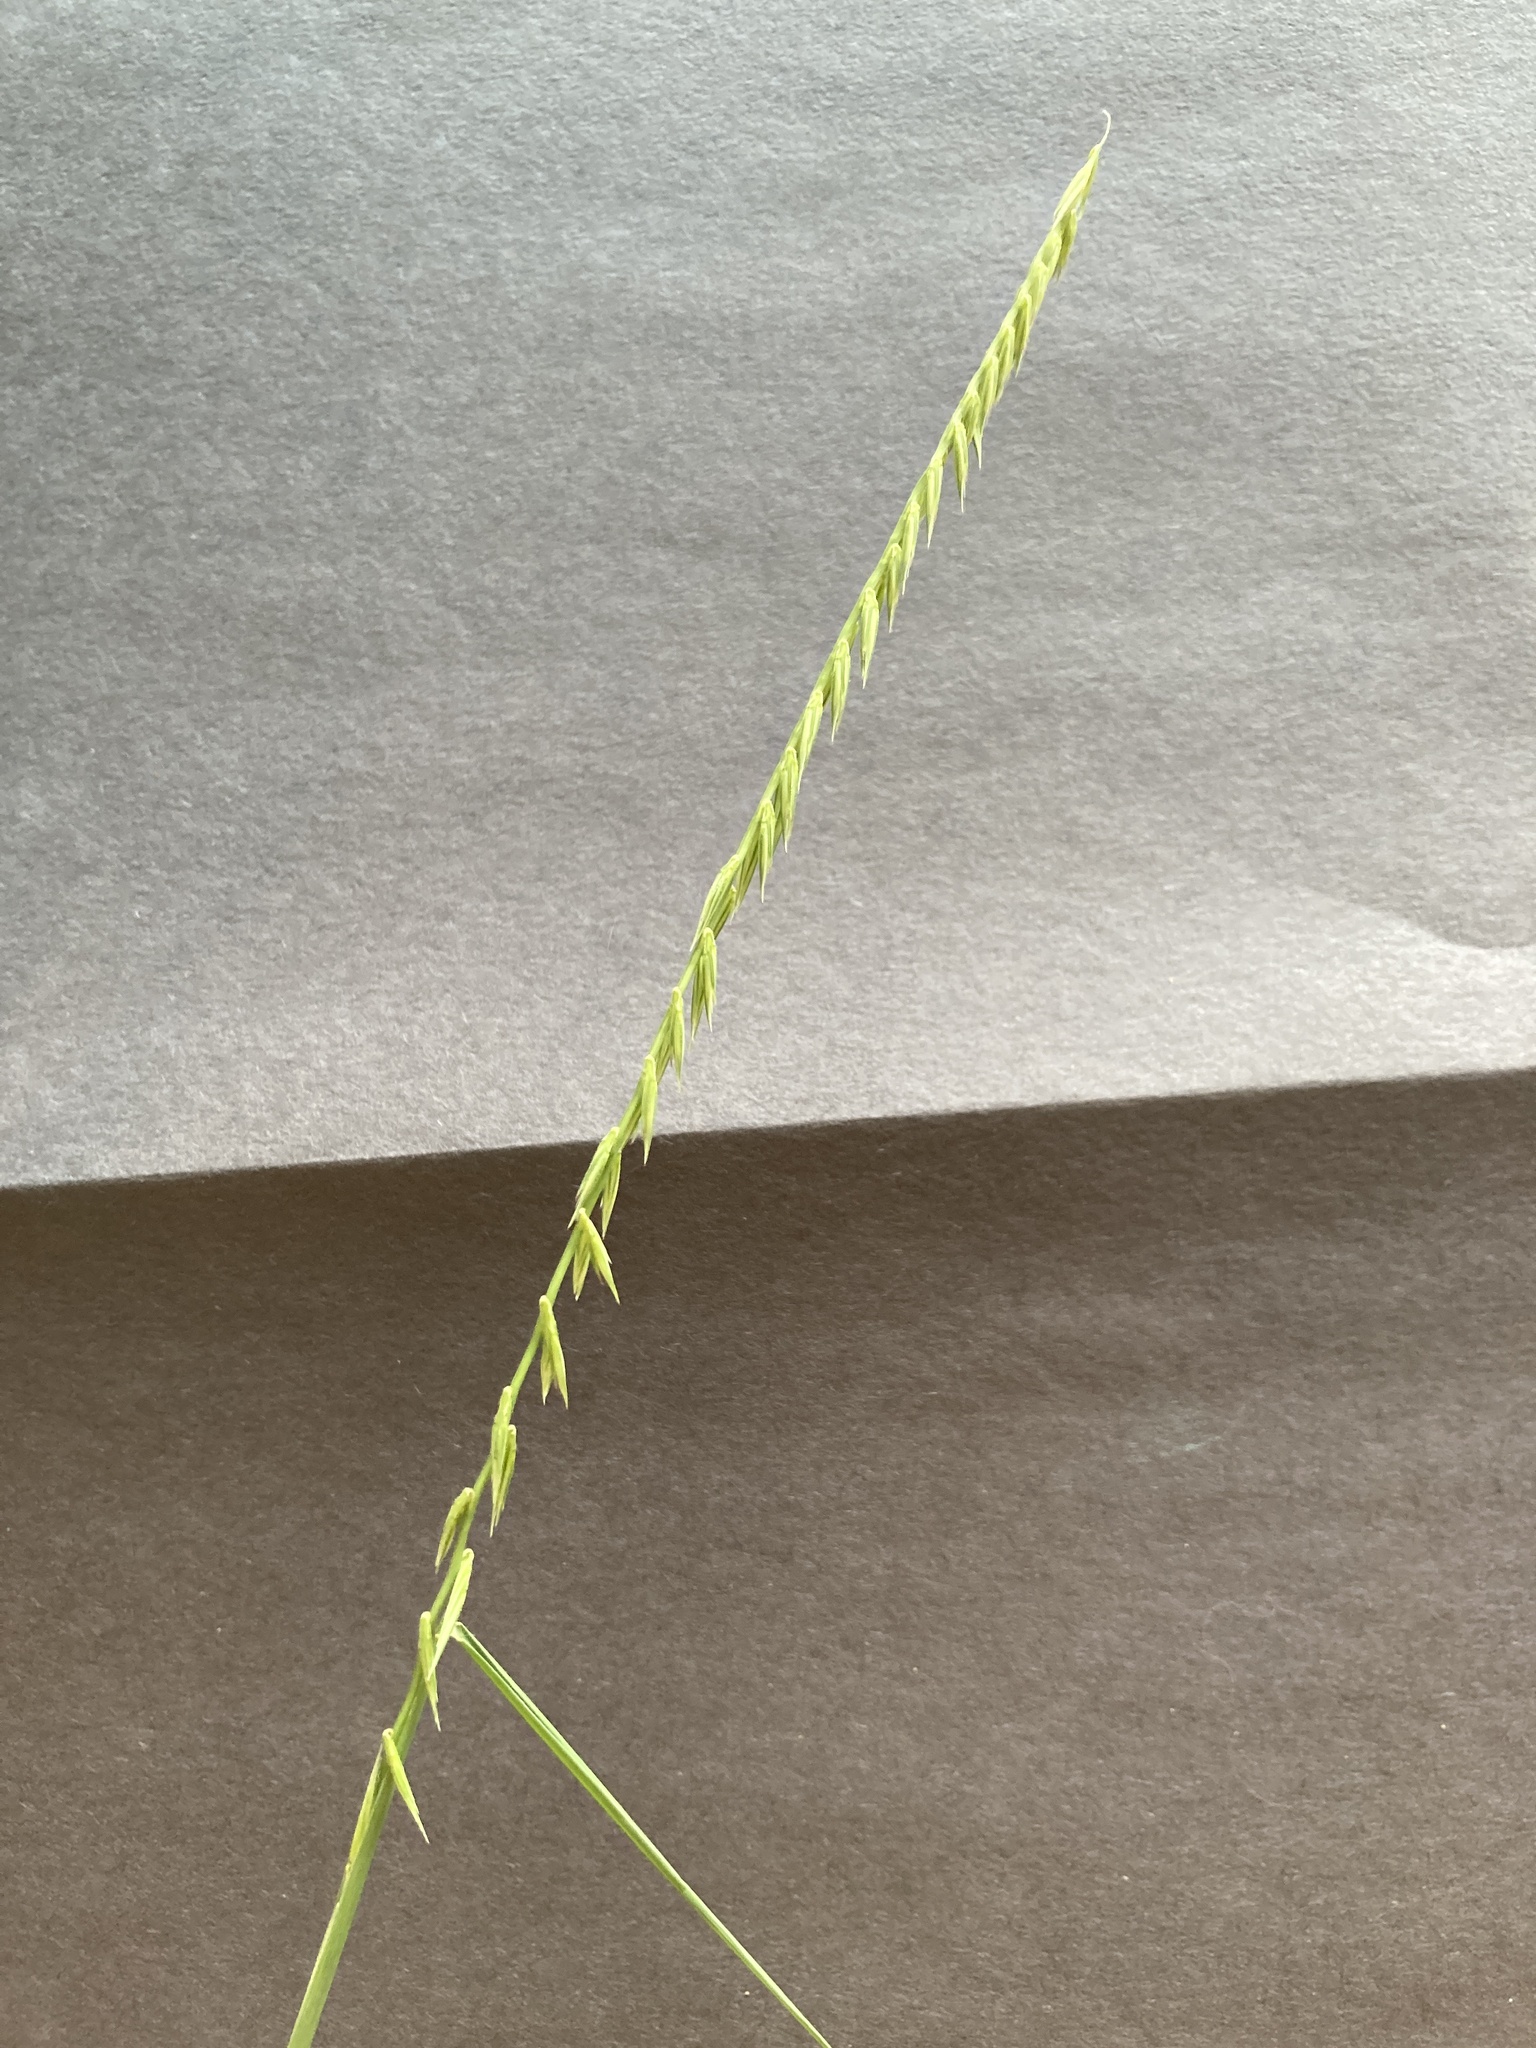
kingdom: Plantae
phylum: Tracheophyta
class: Liliopsida
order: Poales
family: Poaceae
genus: Bouteloua
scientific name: Bouteloua curtipendula
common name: Side-oats grama
